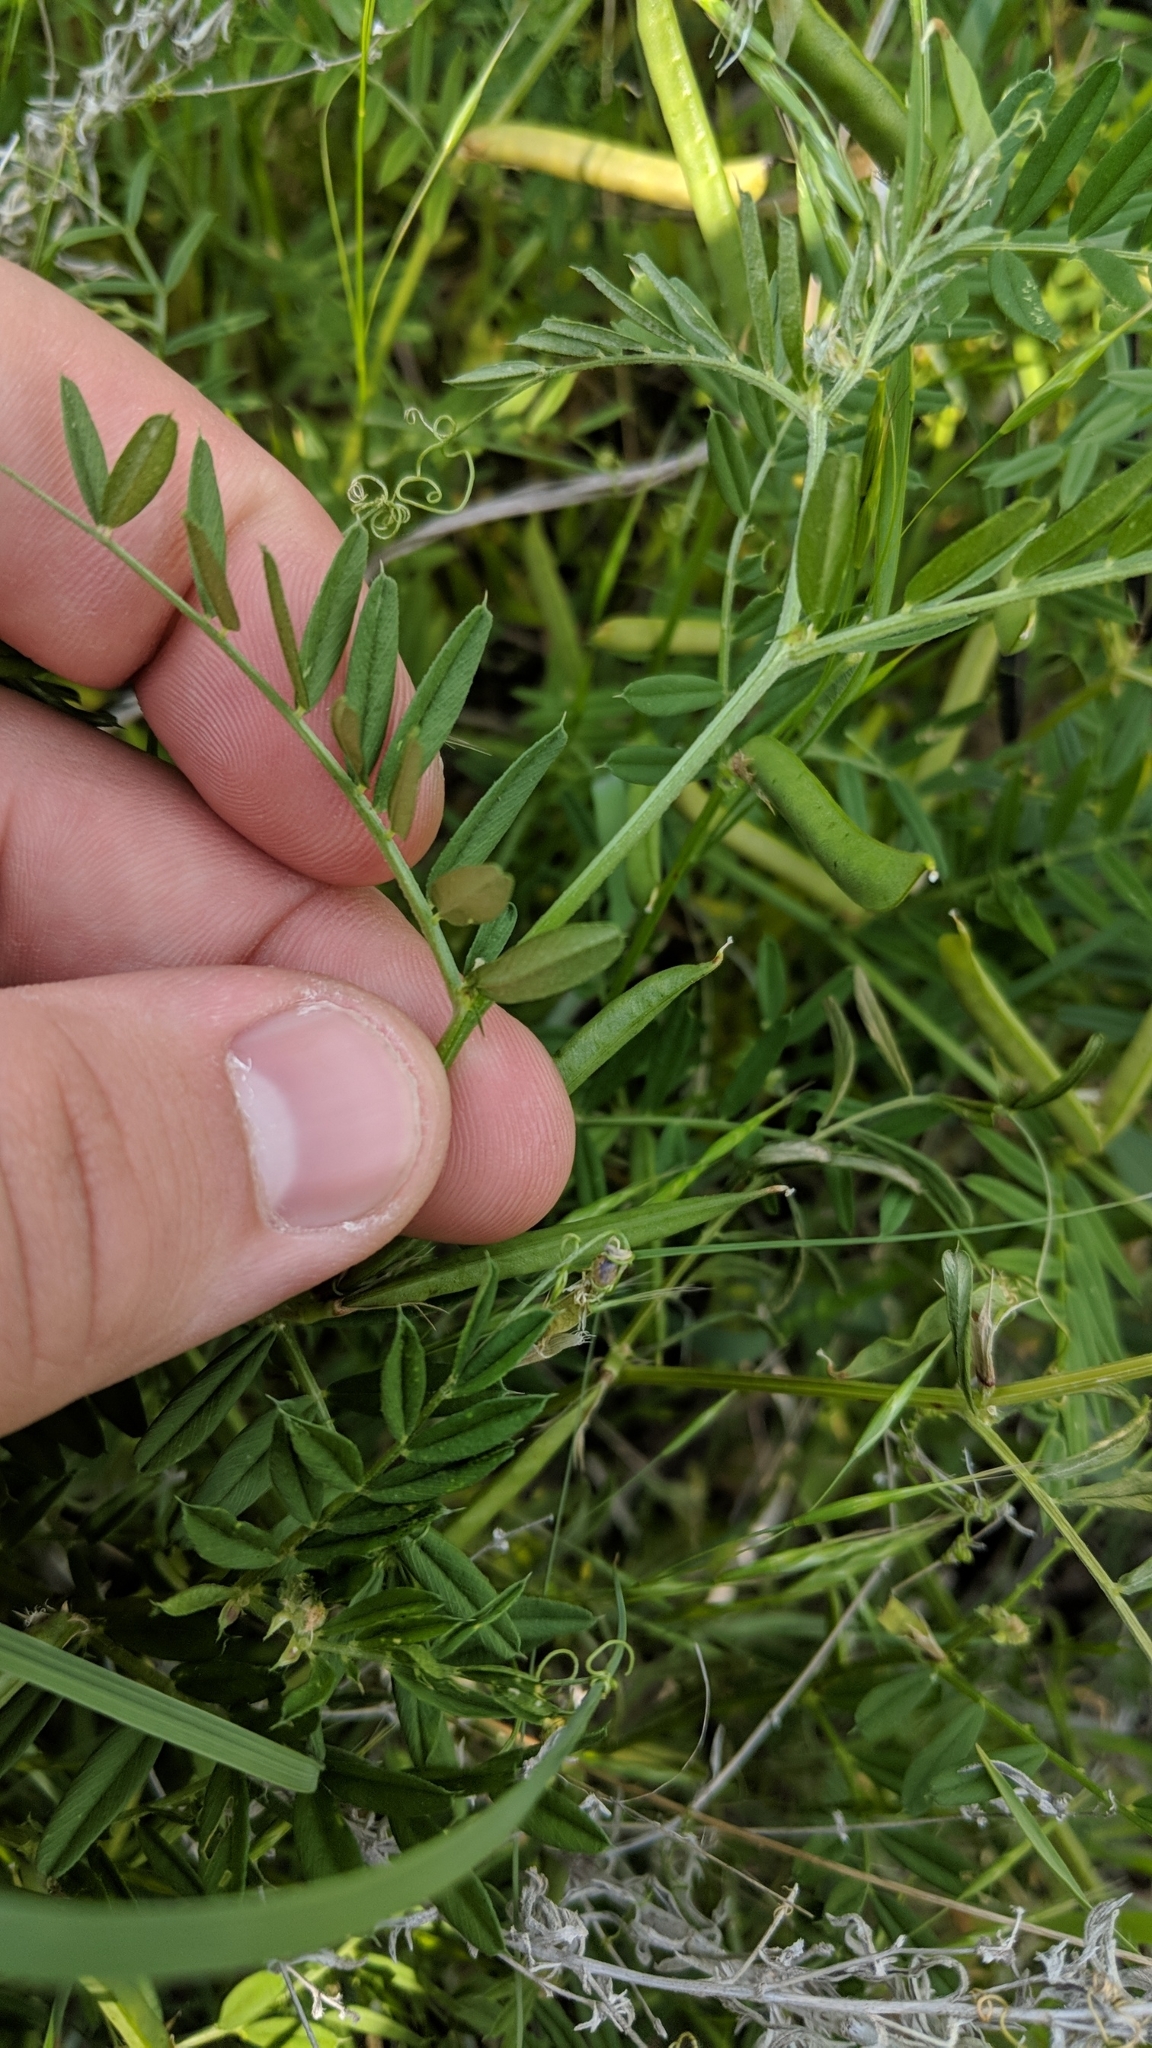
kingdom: Plantae
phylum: Tracheophyta
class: Magnoliopsida
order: Fabales
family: Fabaceae
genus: Vicia
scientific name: Vicia sativa
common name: Garden vetch
